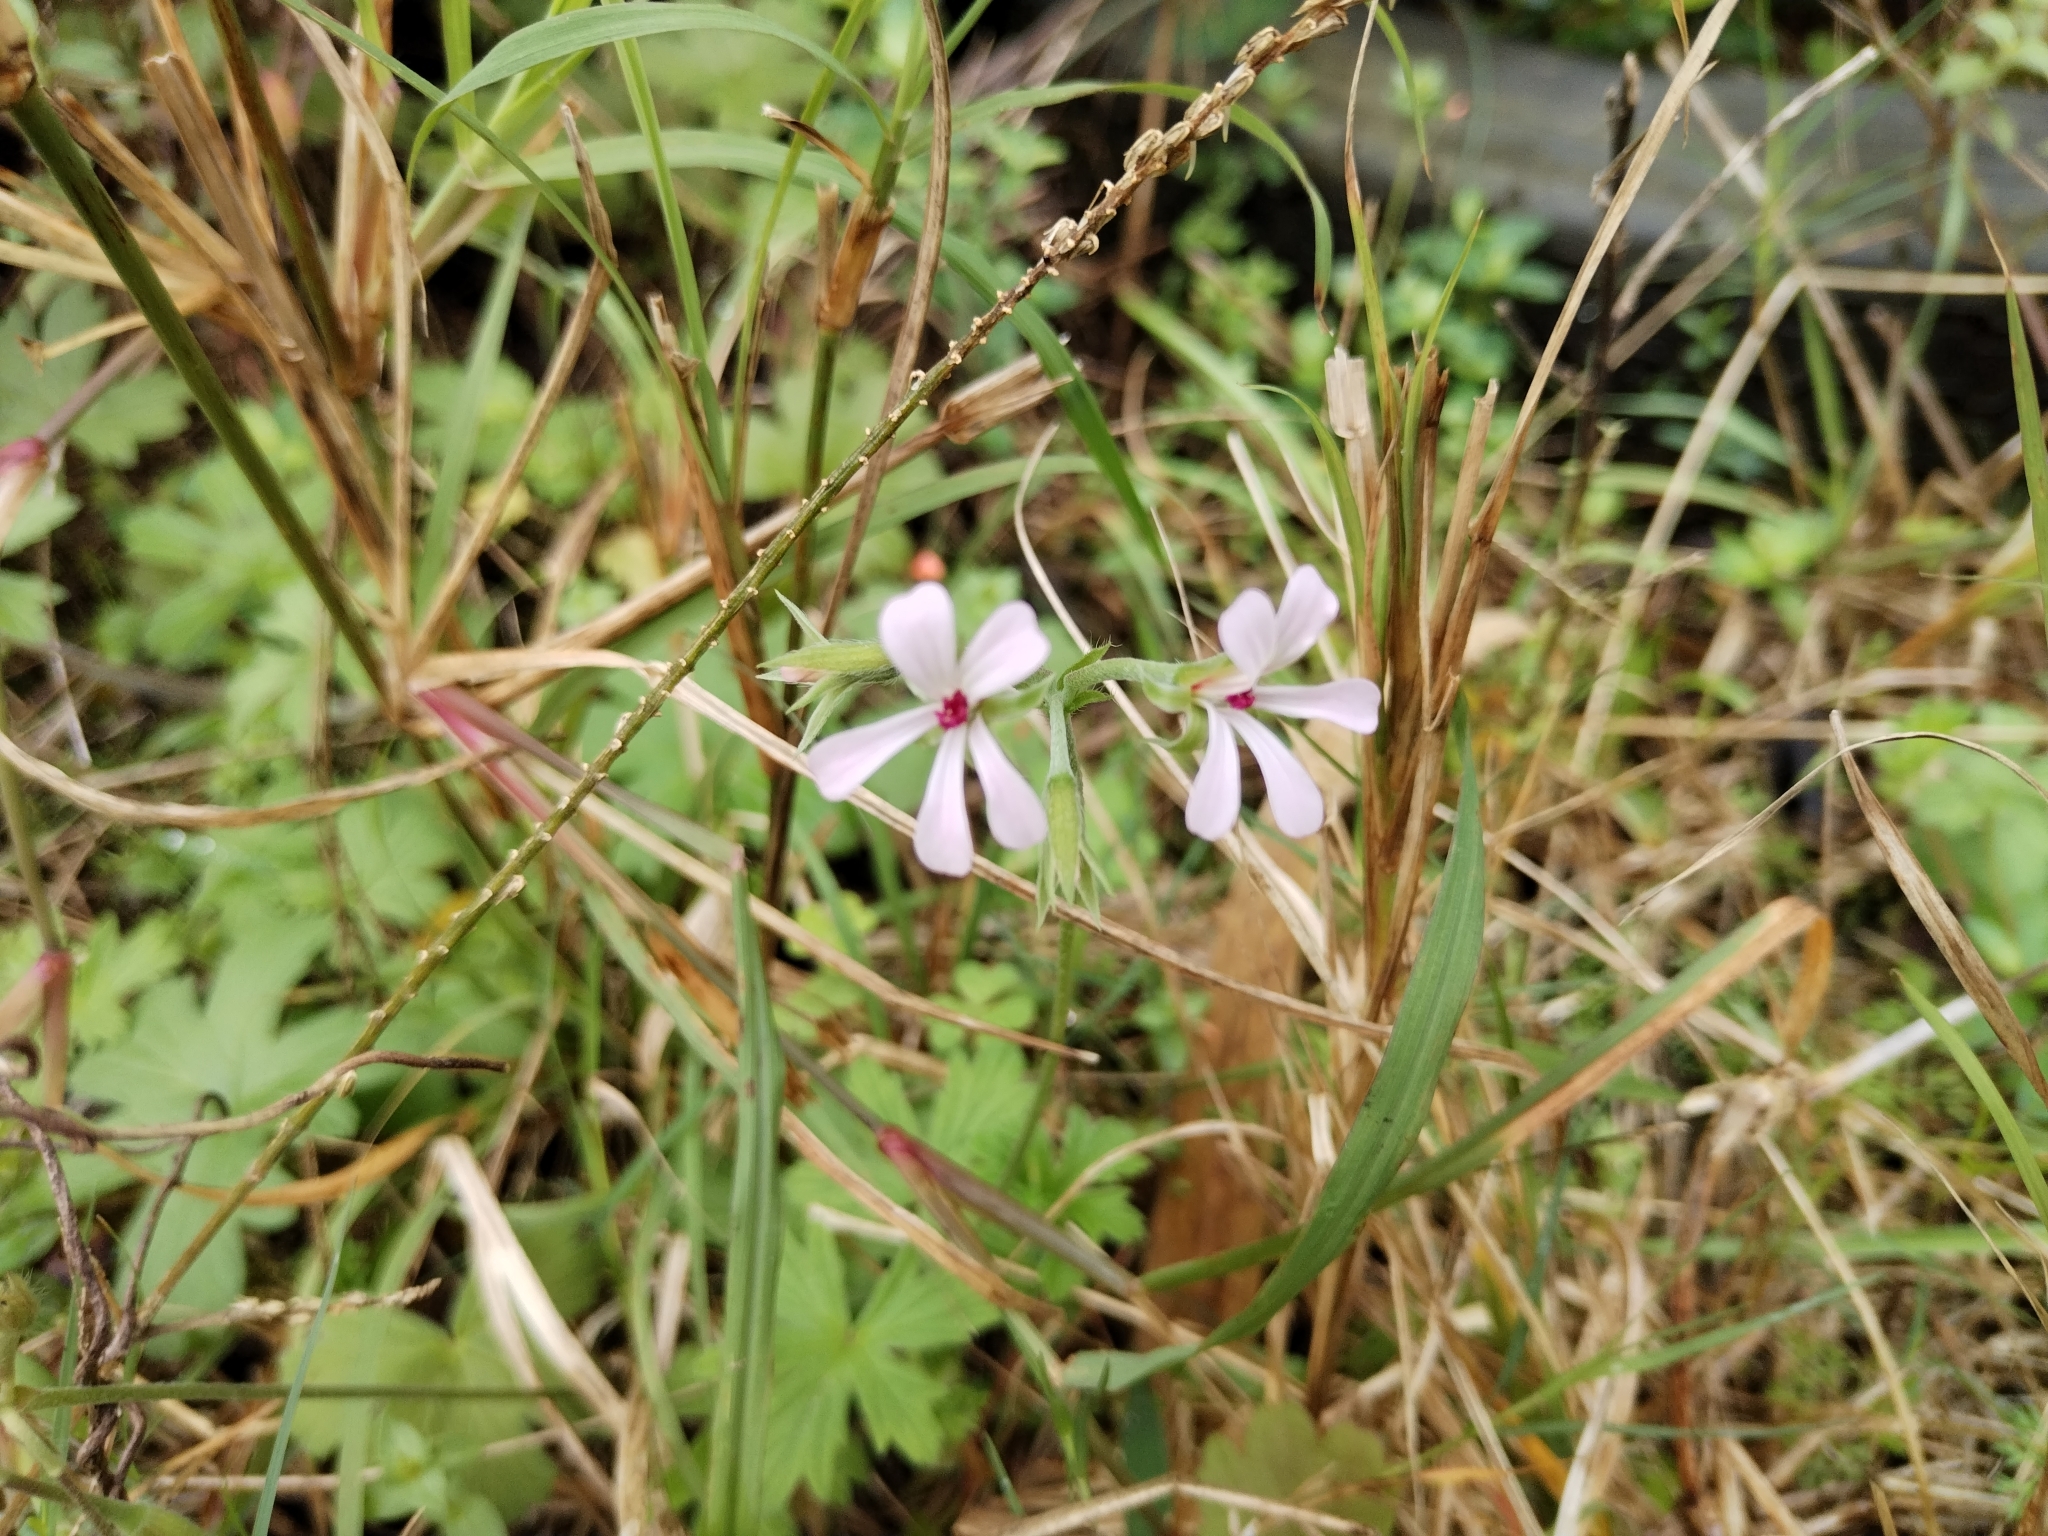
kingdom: Plantae
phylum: Tracheophyta
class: Magnoliopsida
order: Geraniales
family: Geraniaceae
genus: Pelargonium
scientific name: Pelargonium alchemilloides
